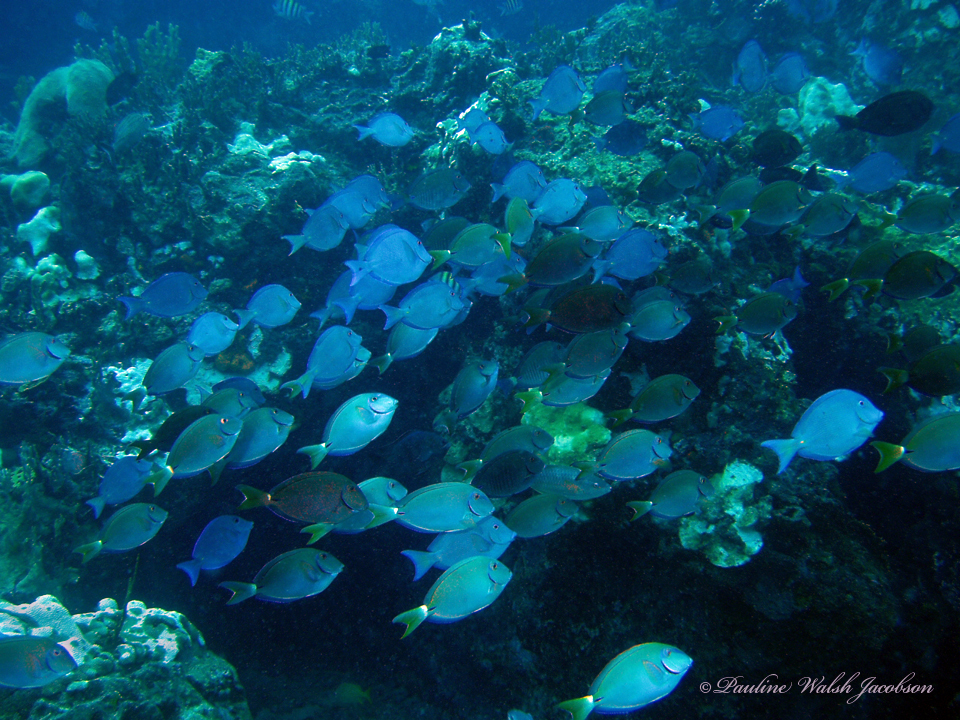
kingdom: Animalia
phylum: Chordata
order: Perciformes
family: Acanthuridae
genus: Acanthurus
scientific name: Acanthurus coeruleus
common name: Blue tang
